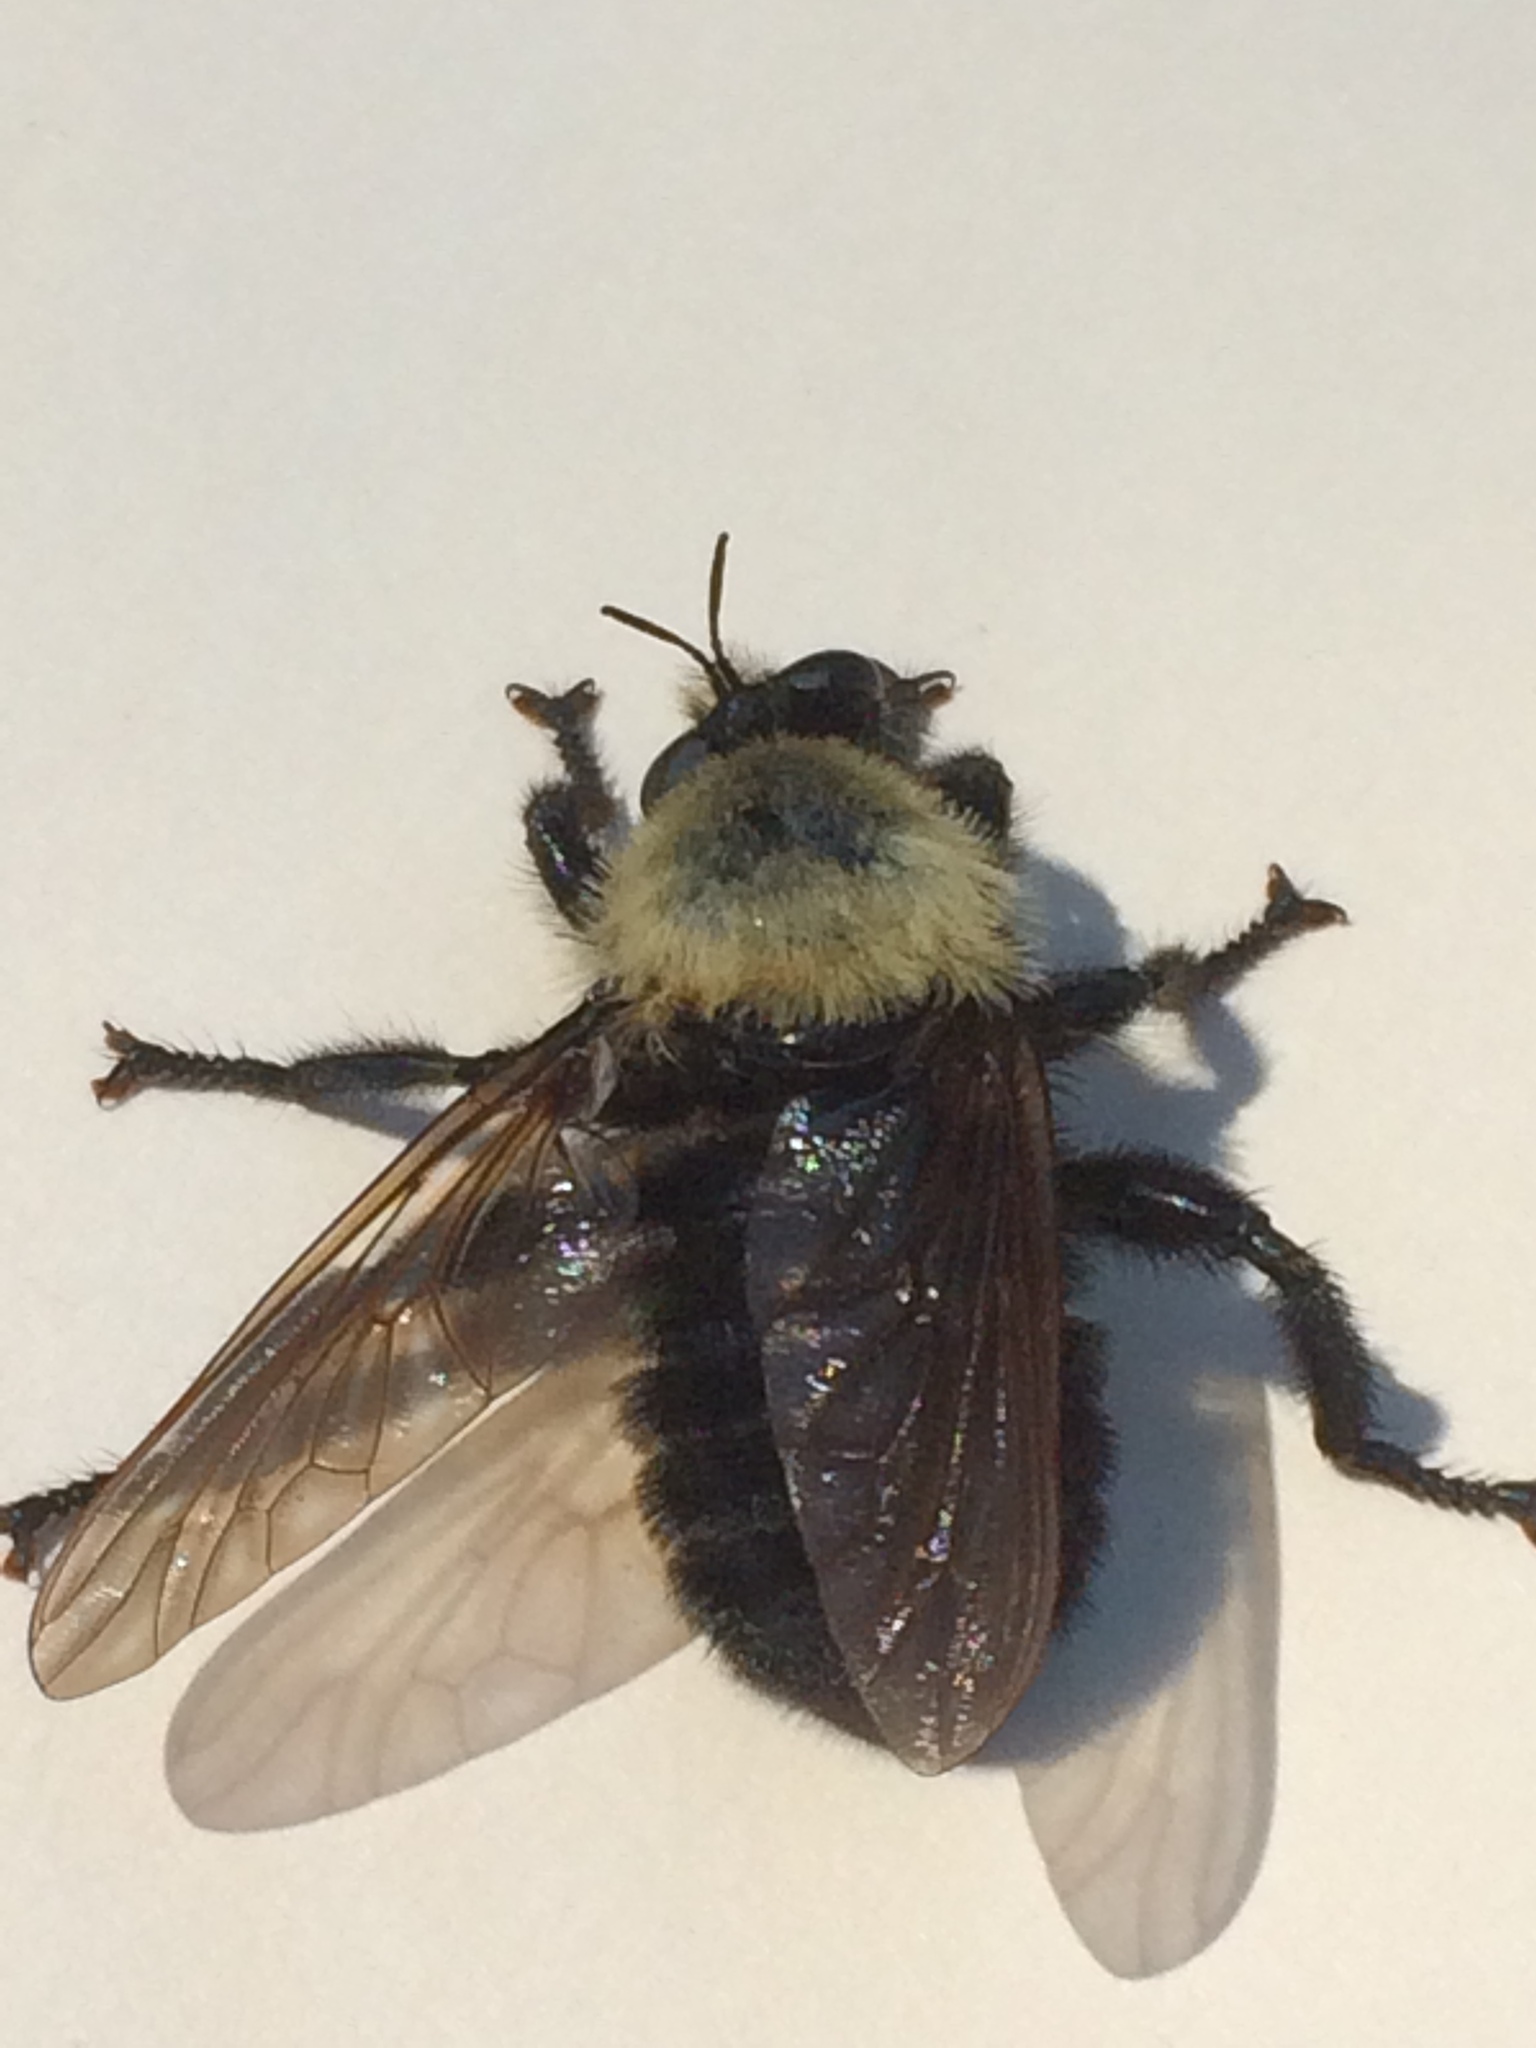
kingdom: Animalia
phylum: Arthropoda
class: Insecta
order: Diptera
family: Asilidae
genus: Laphria
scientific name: Laphria thoracica
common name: Bumble bee mimic robber fly
